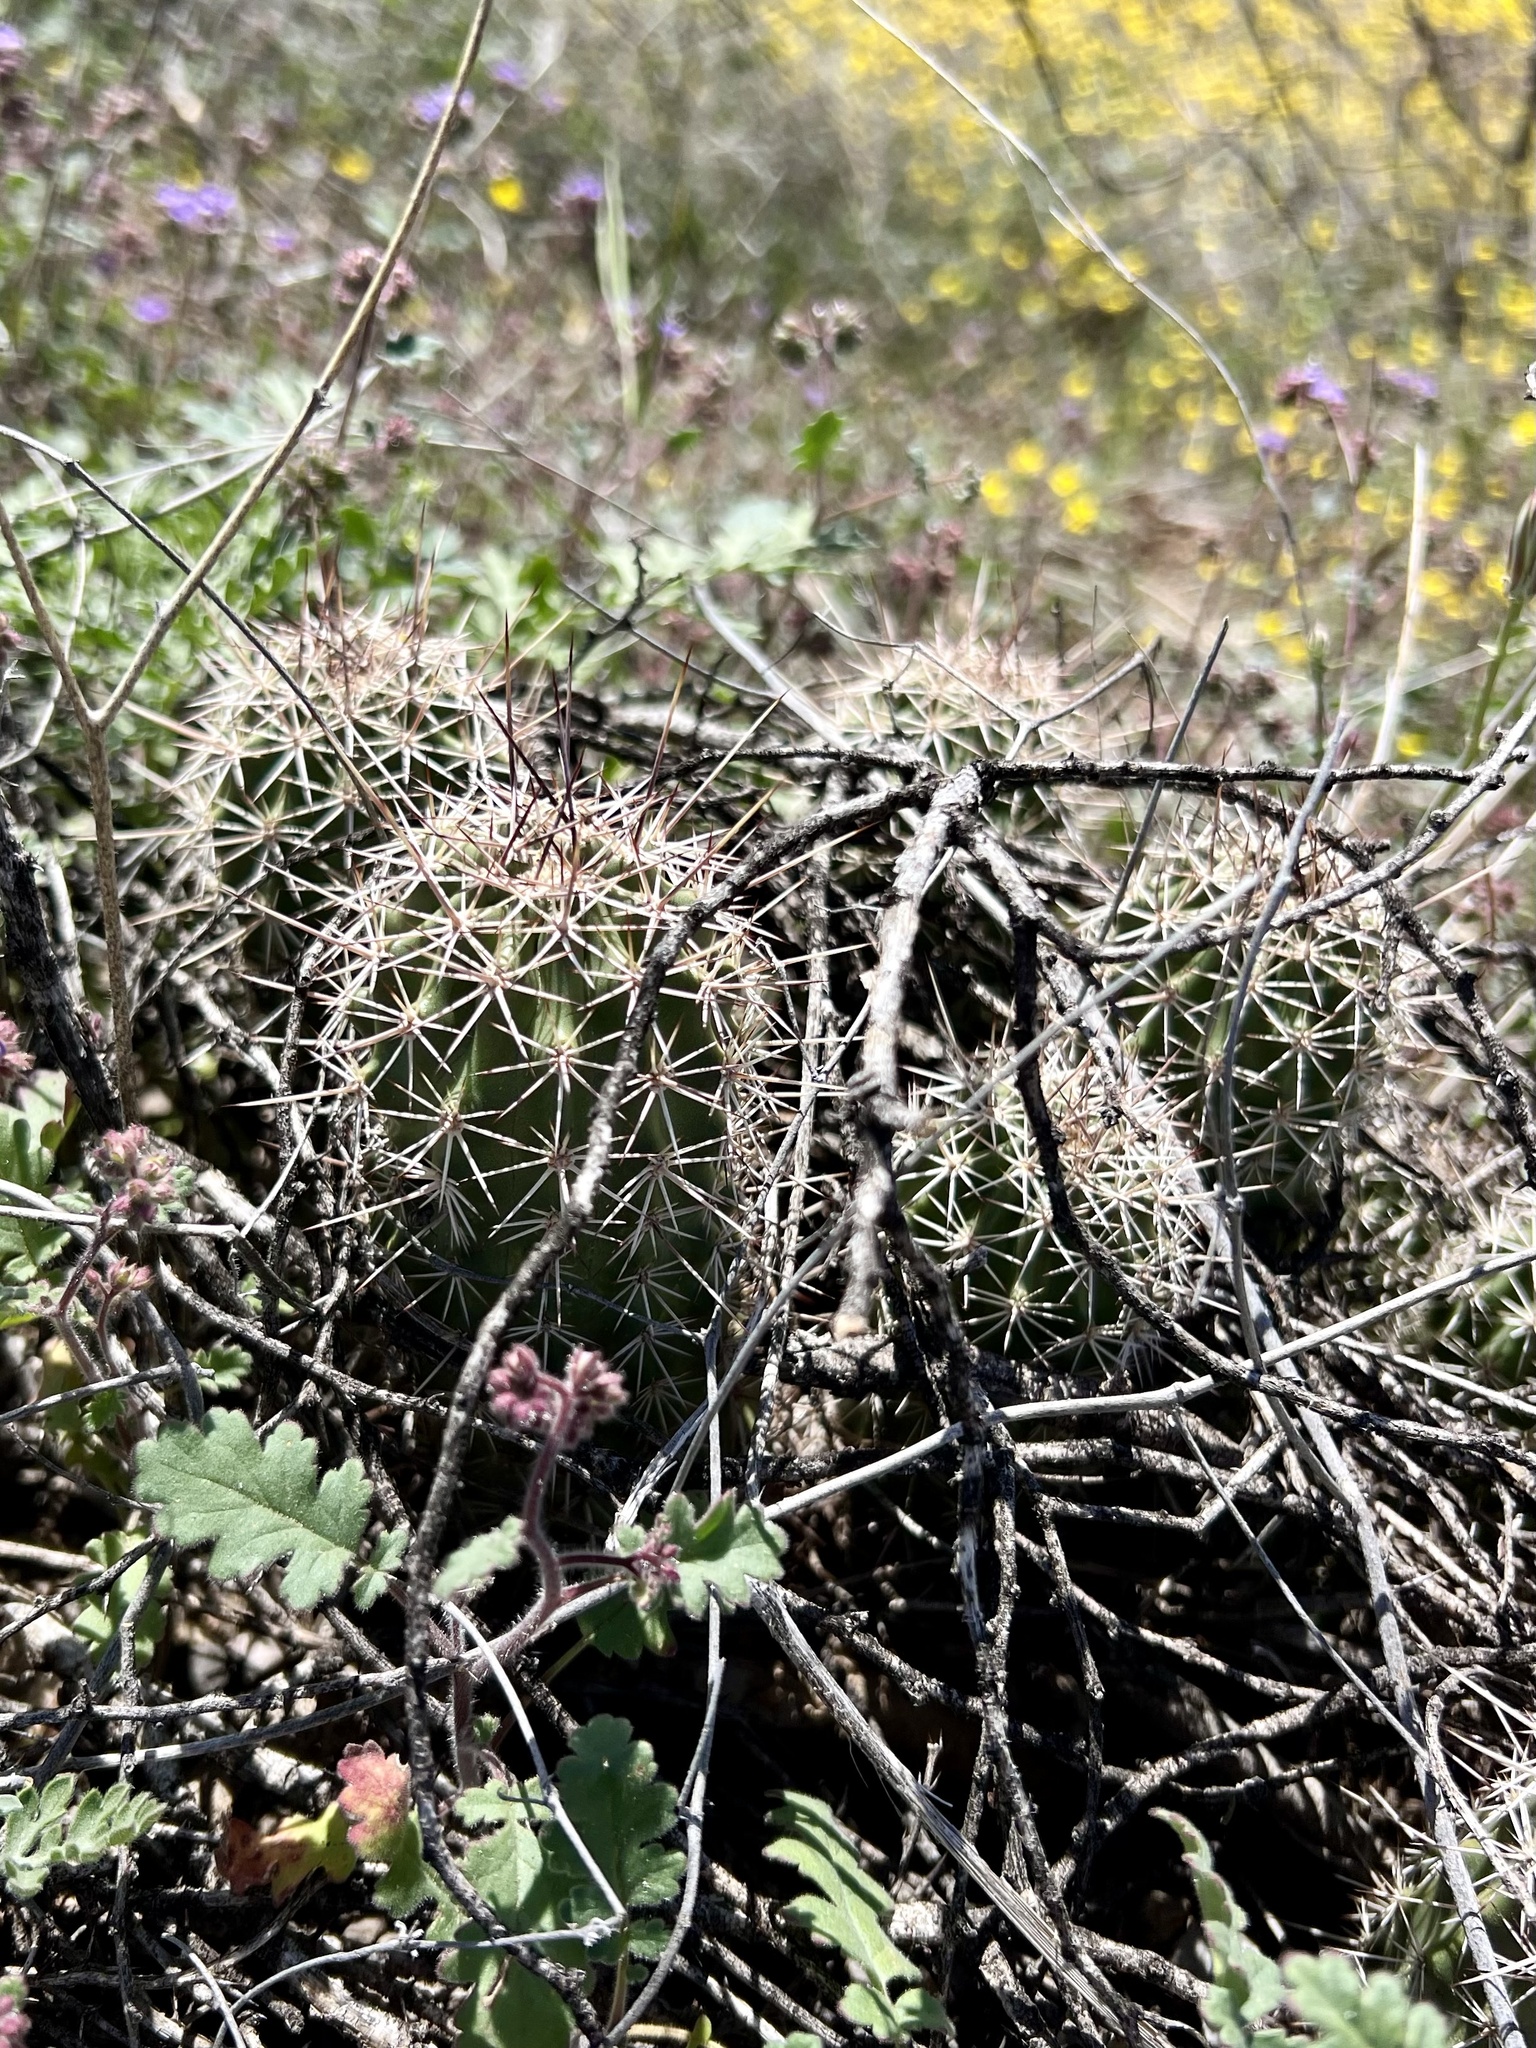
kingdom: Plantae
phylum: Tracheophyta
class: Magnoliopsida
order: Caryophyllales
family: Cactaceae
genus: Echinocereus
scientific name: Echinocereus fasciculatus
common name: Bundle hedgehog
